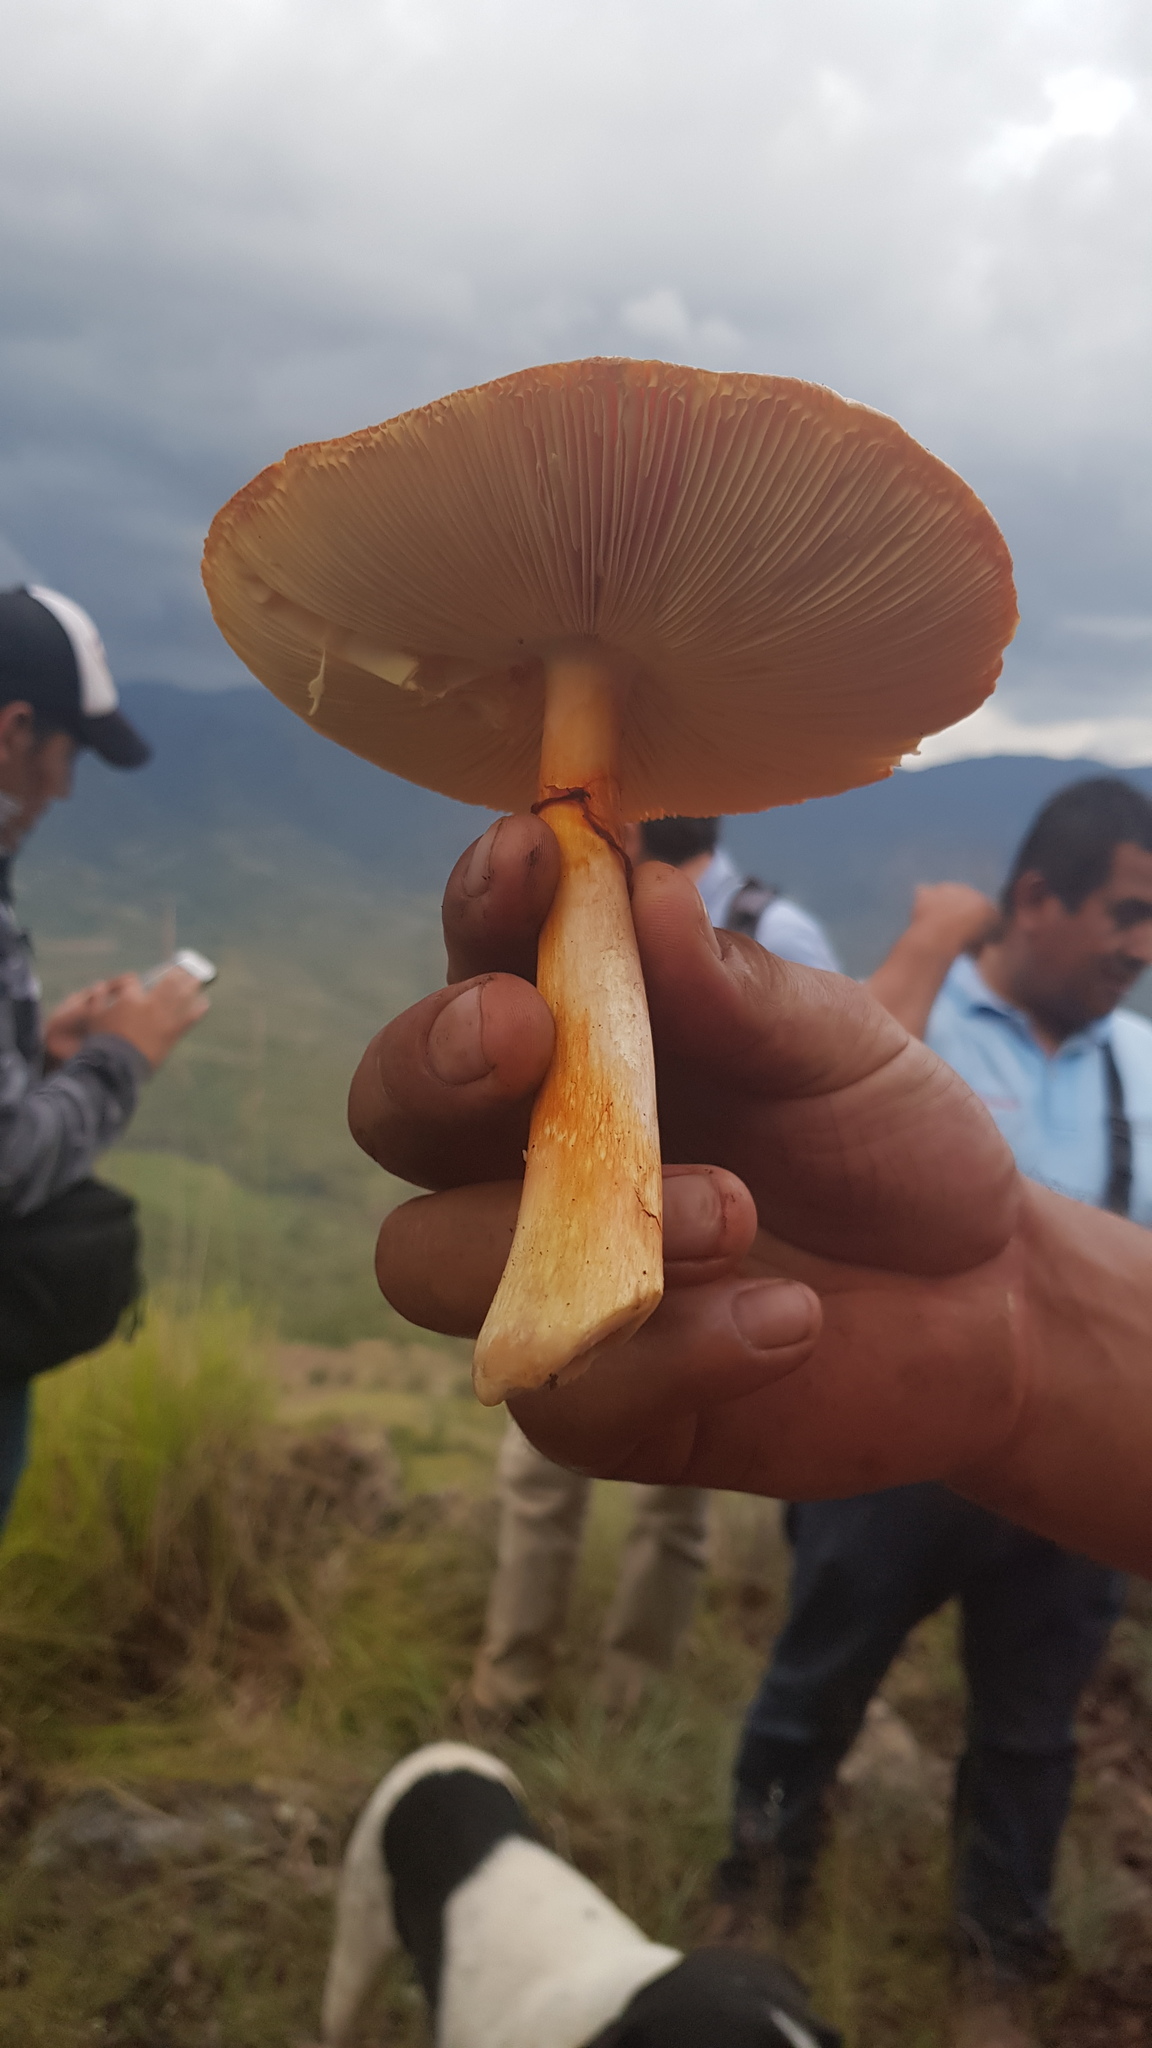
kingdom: Fungi
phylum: Basidiomycota
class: Agaricomycetes
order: Agaricales
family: Amanitaceae
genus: Amanita
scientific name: Amanita basii
